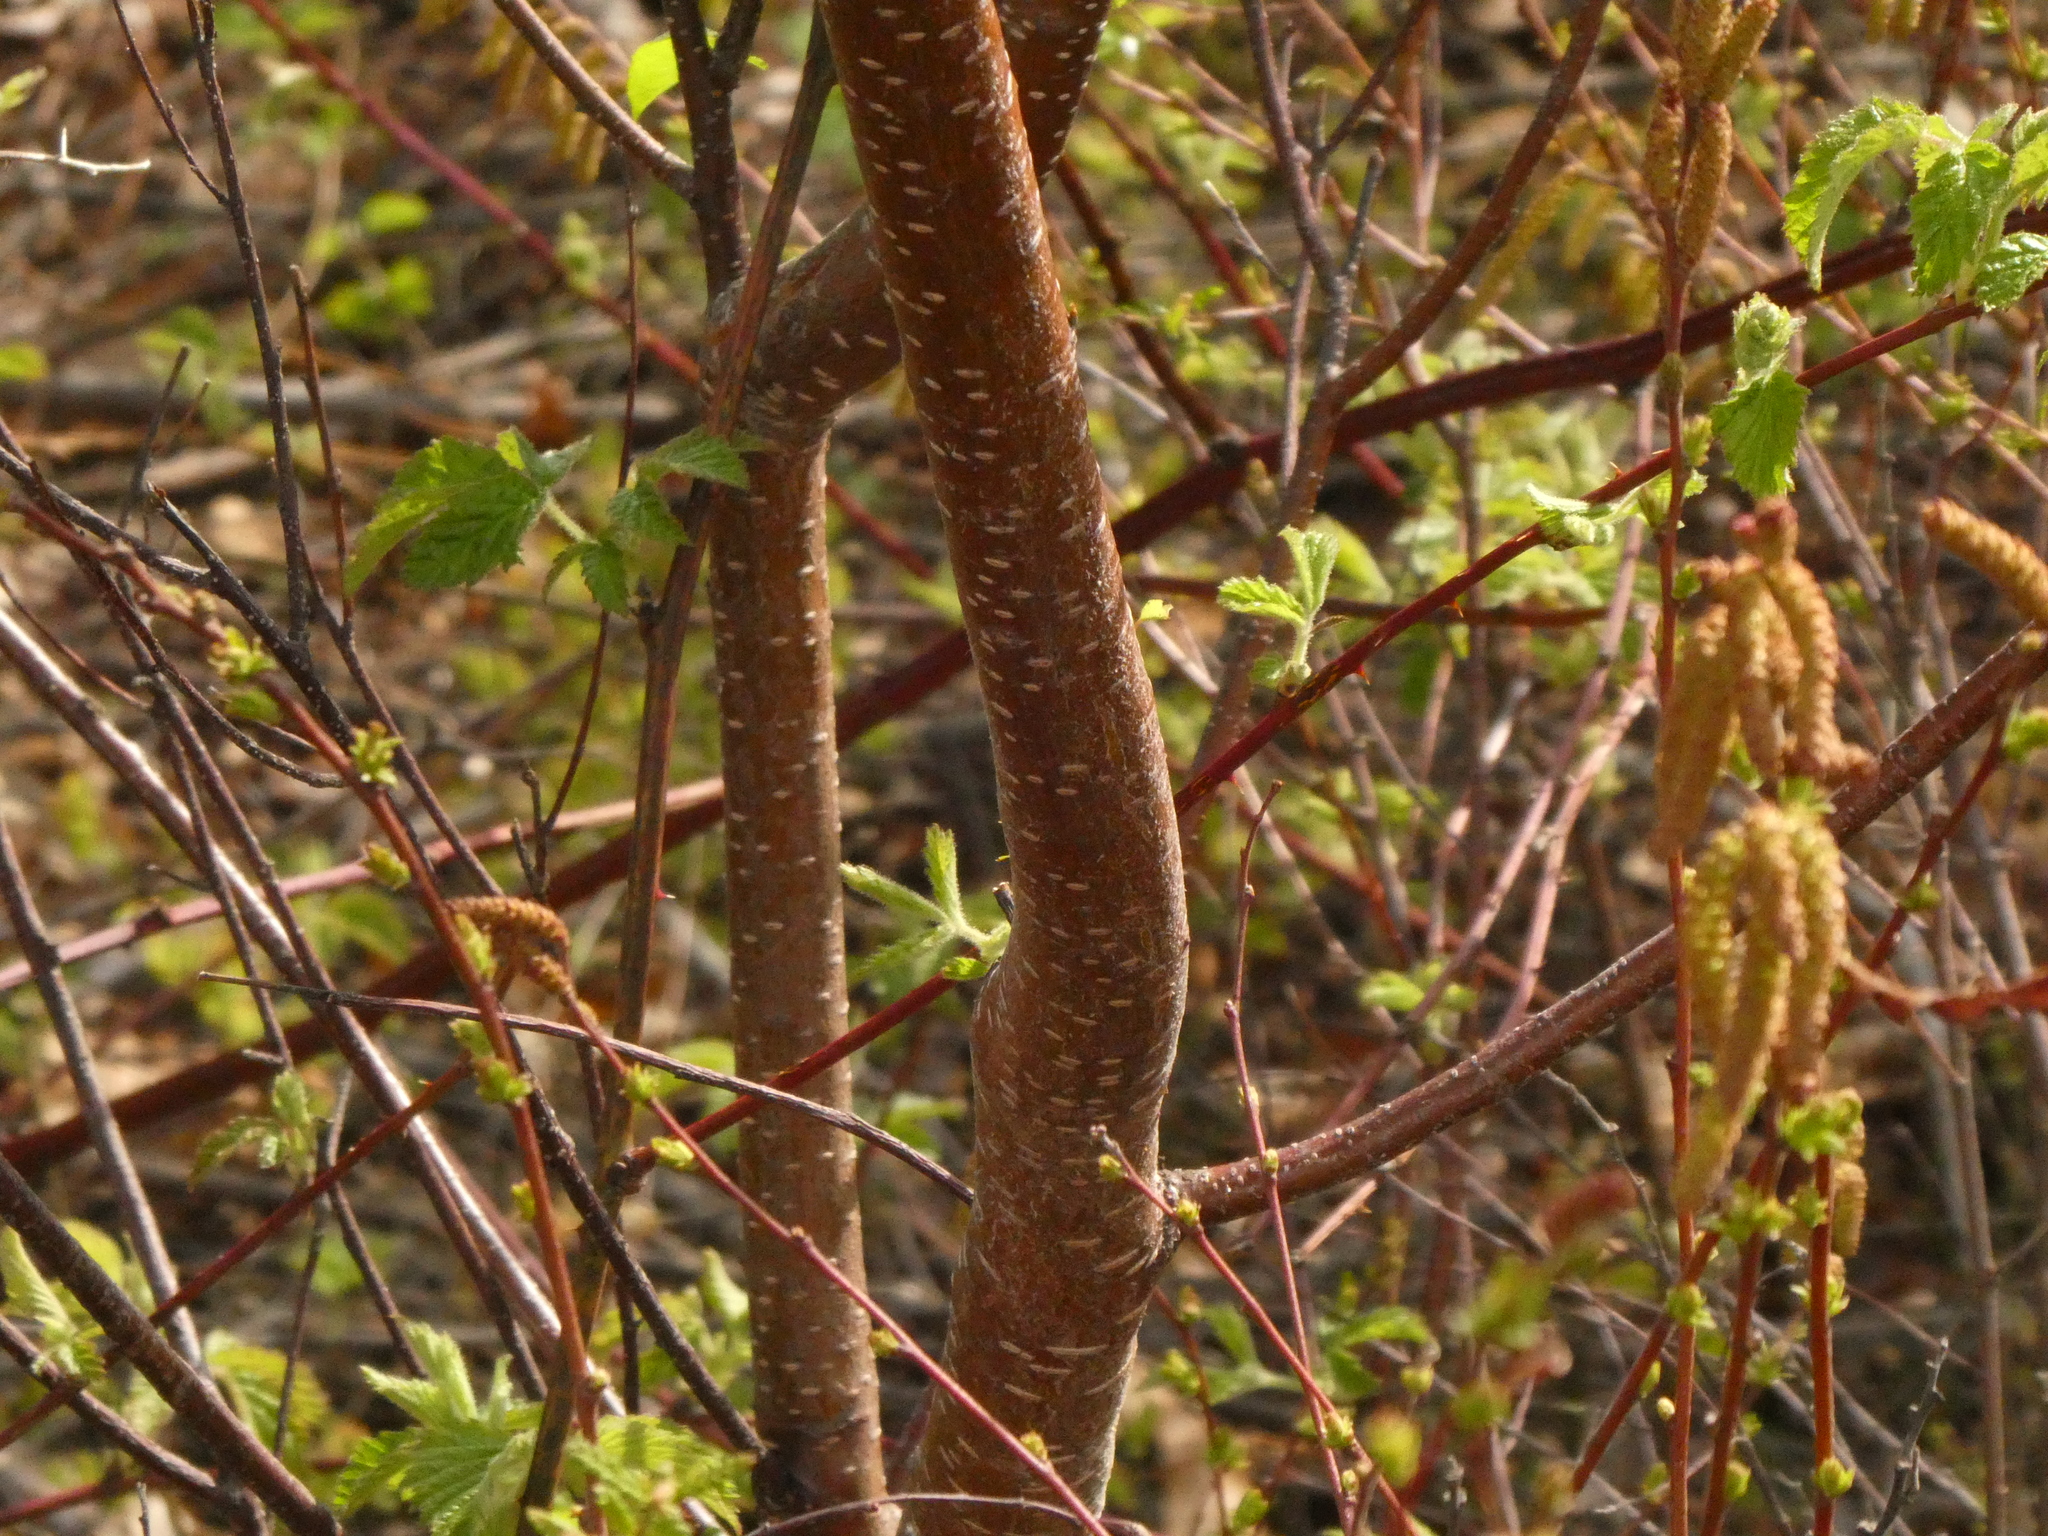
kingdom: Plantae
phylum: Tracheophyta
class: Magnoliopsida
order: Rosales
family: Rosaceae
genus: Prunus
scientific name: Prunus pensylvanica
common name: Pin cherry
